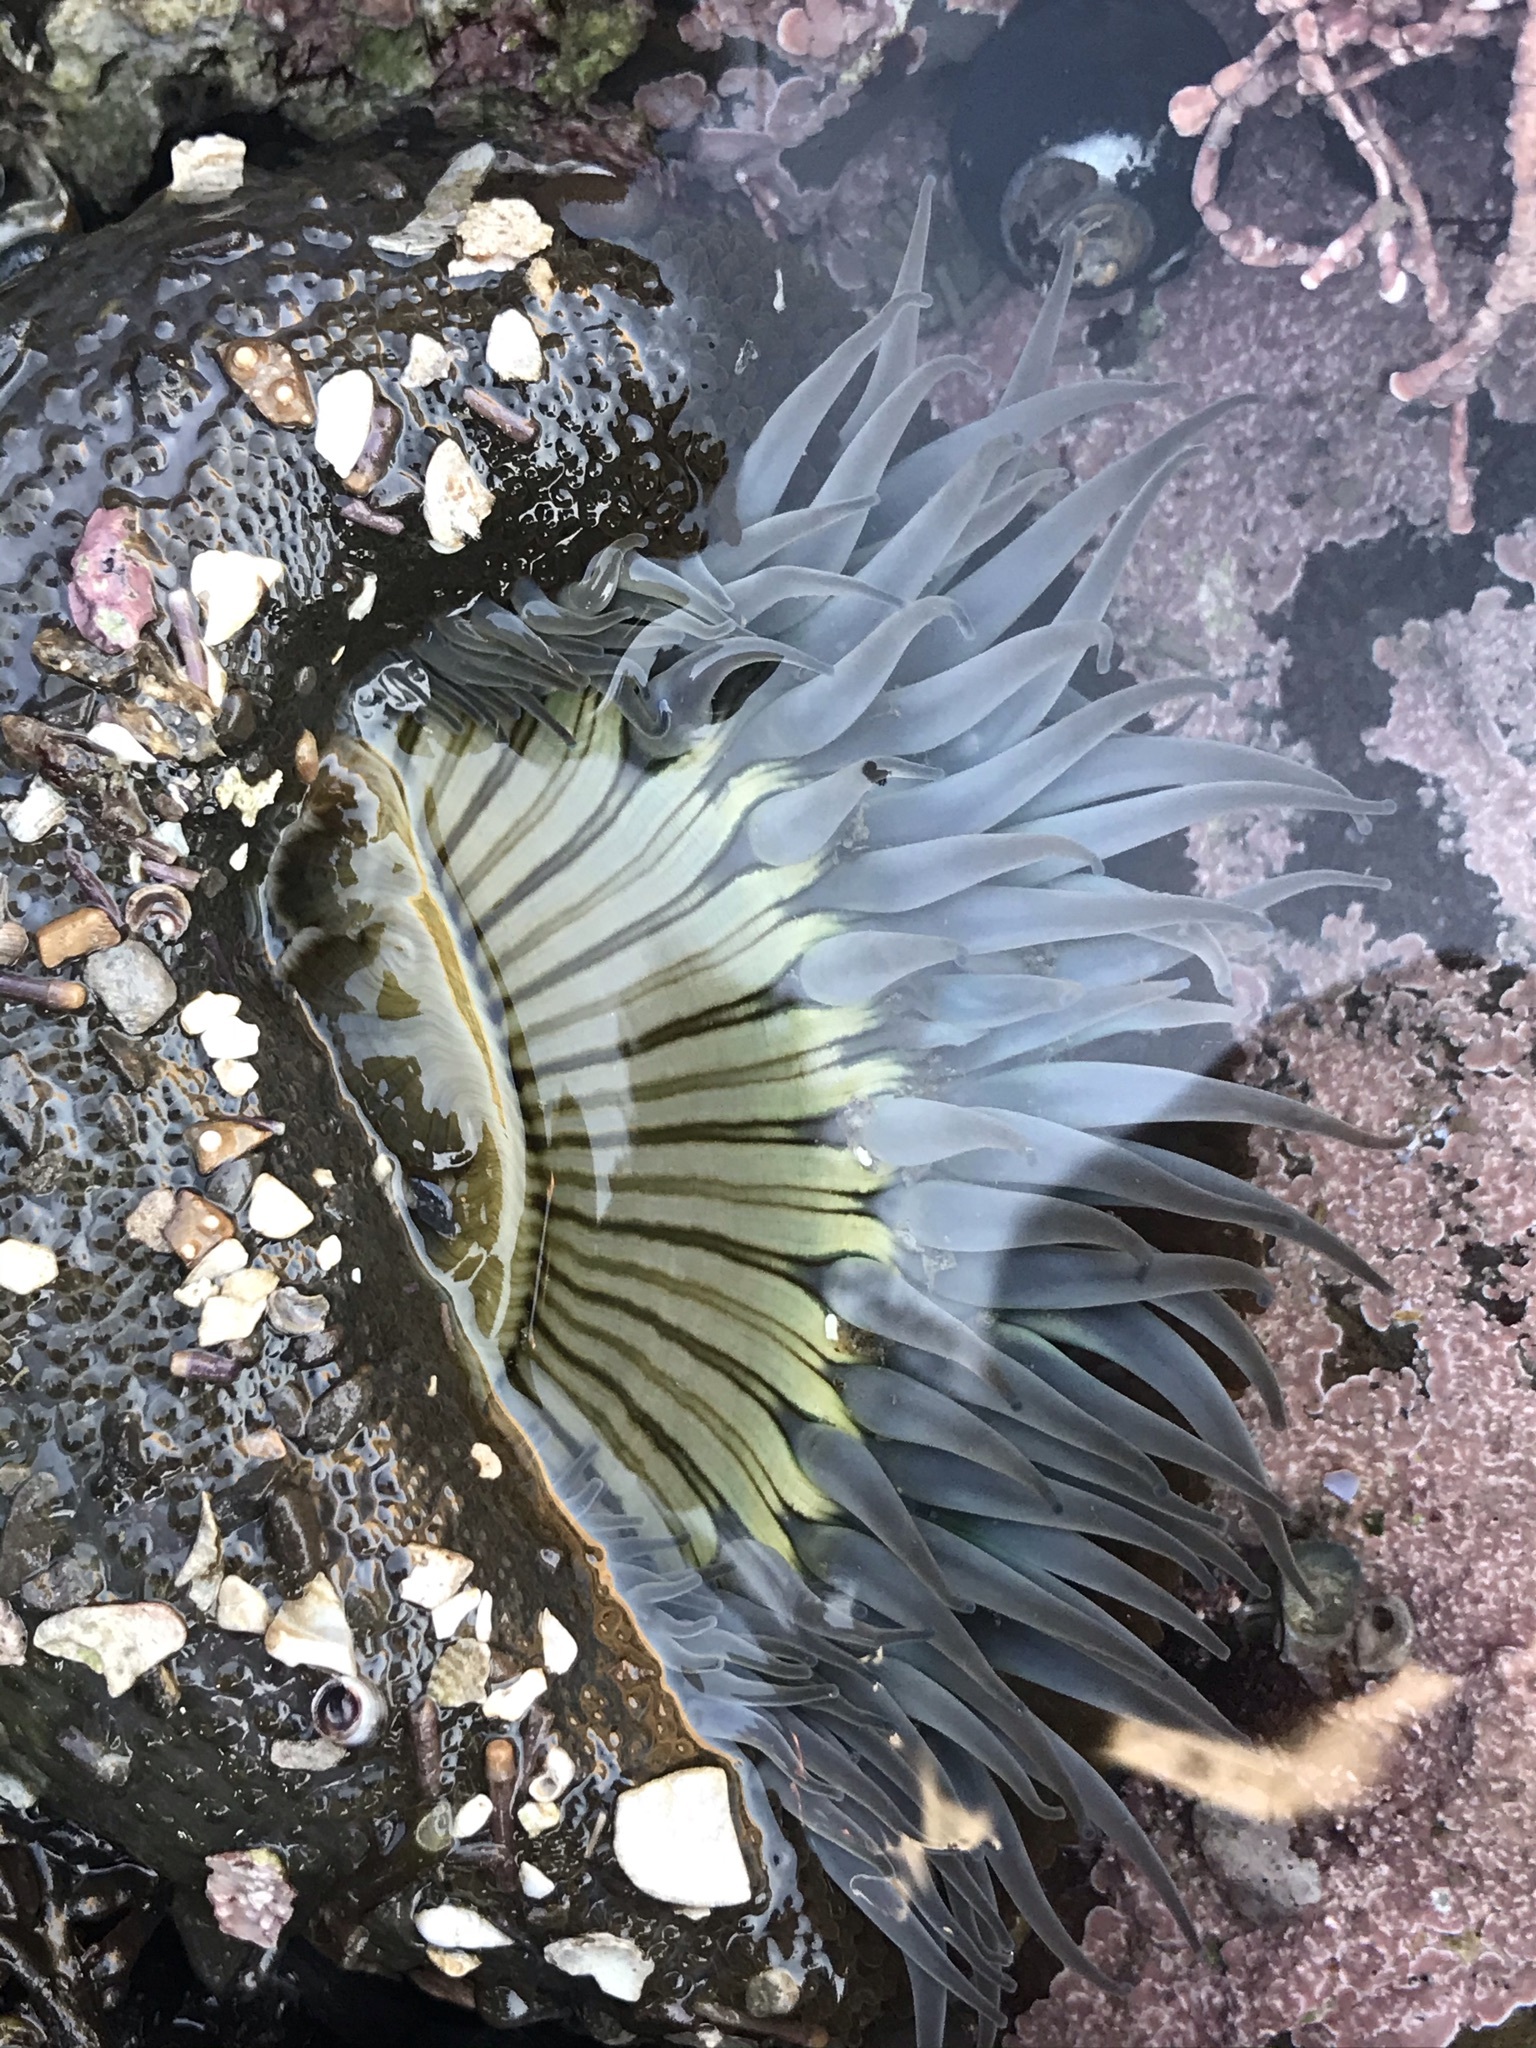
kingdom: Animalia
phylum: Cnidaria
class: Anthozoa
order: Actiniaria
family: Actiniidae
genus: Anthopleura
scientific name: Anthopleura sola
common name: Sun anemone
